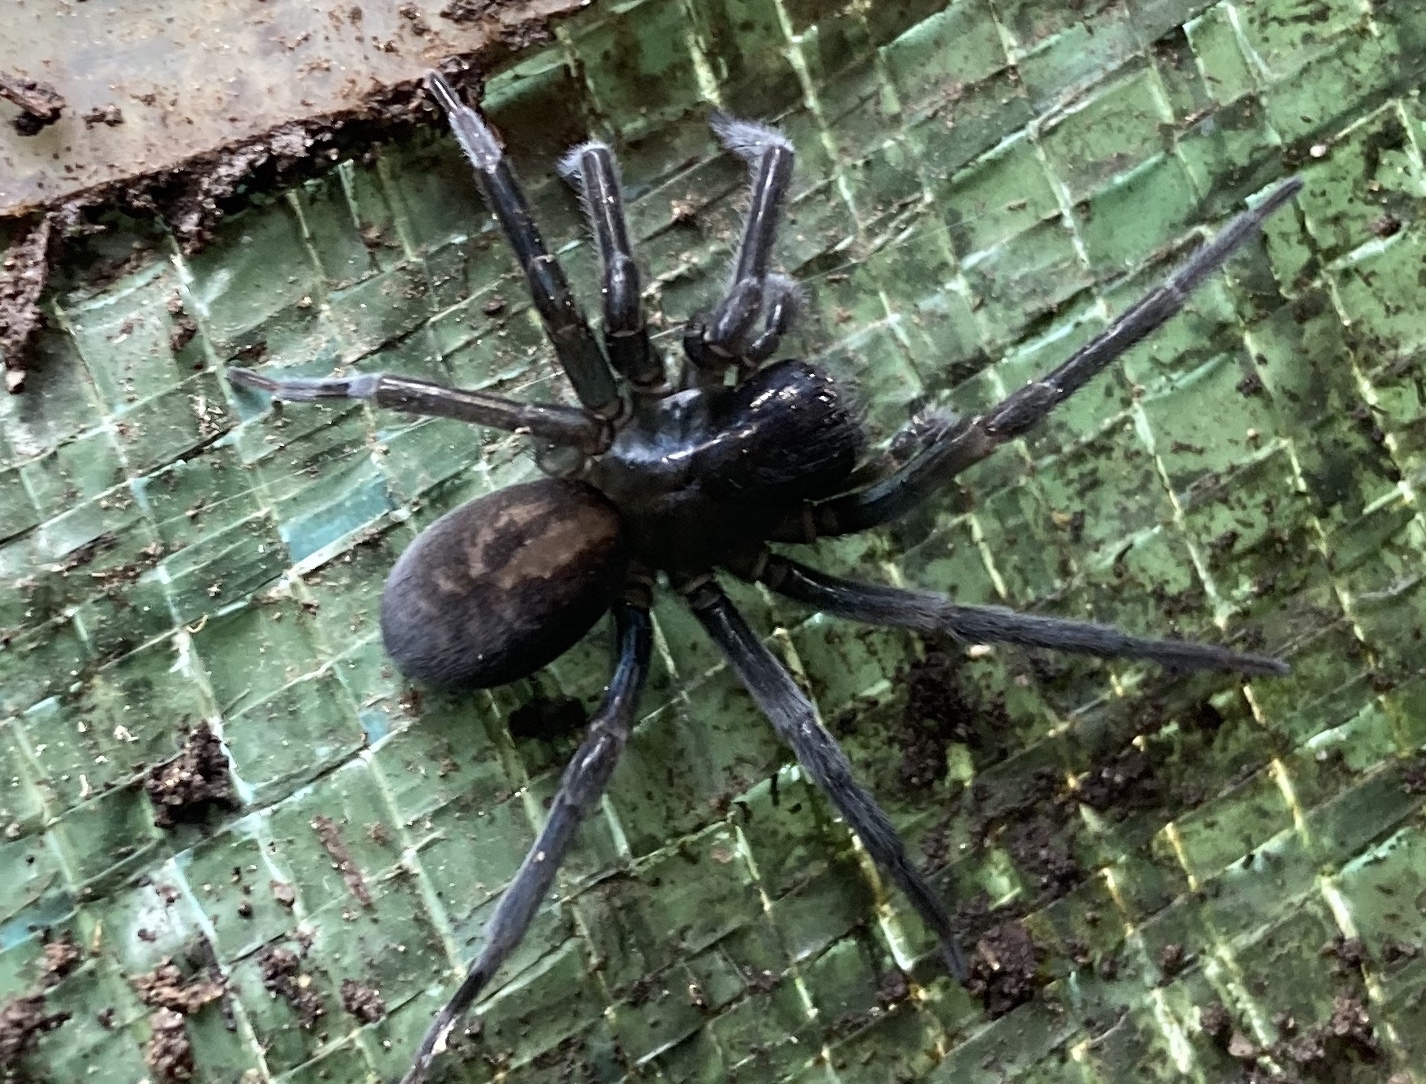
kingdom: Animalia
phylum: Arthropoda
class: Arachnida
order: Araneae
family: Amaurobiidae
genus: Amaurobius
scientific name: Amaurobius ferox
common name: Black laceweaver
